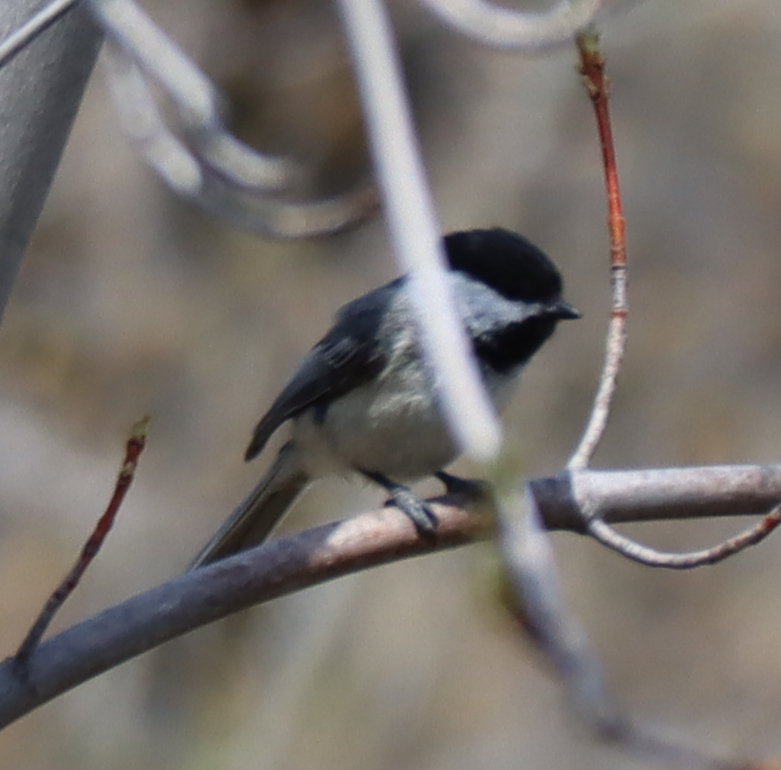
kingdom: Animalia
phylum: Chordata
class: Aves
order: Passeriformes
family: Paridae
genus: Poecile
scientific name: Poecile atricapillus
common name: Black-capped chickadee
